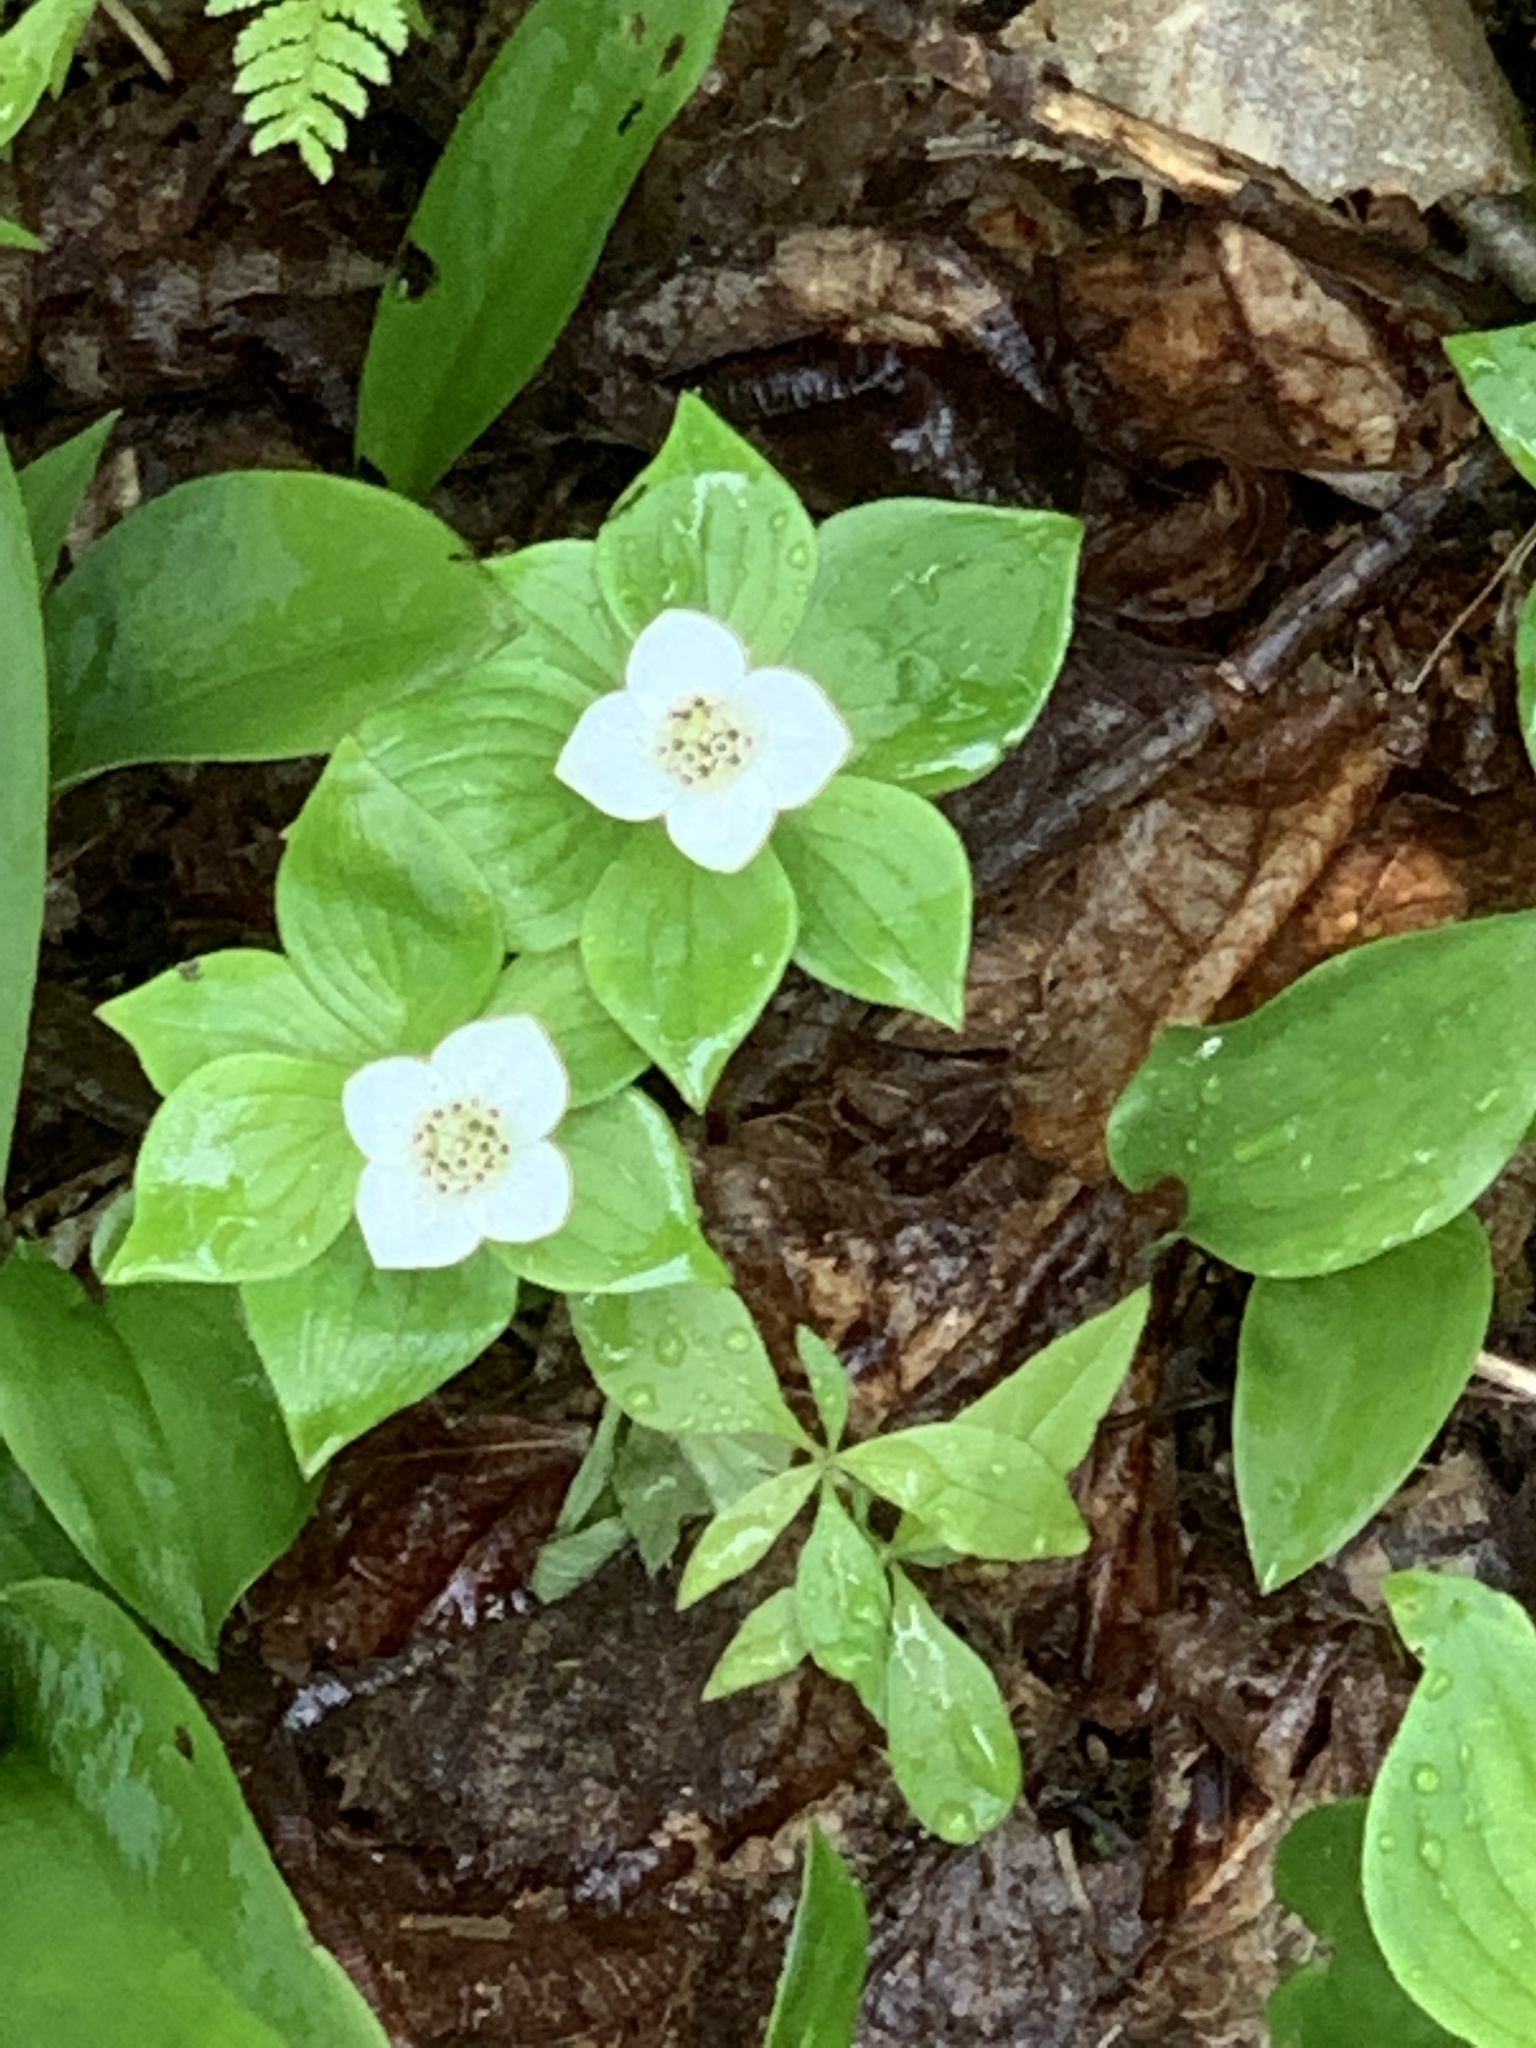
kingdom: Plantae
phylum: Tracheophyta
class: Magnoliopsida
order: Cornales
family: Cornaceae
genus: Cornus
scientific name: Cornus canadensis
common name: Creeping dogwood
